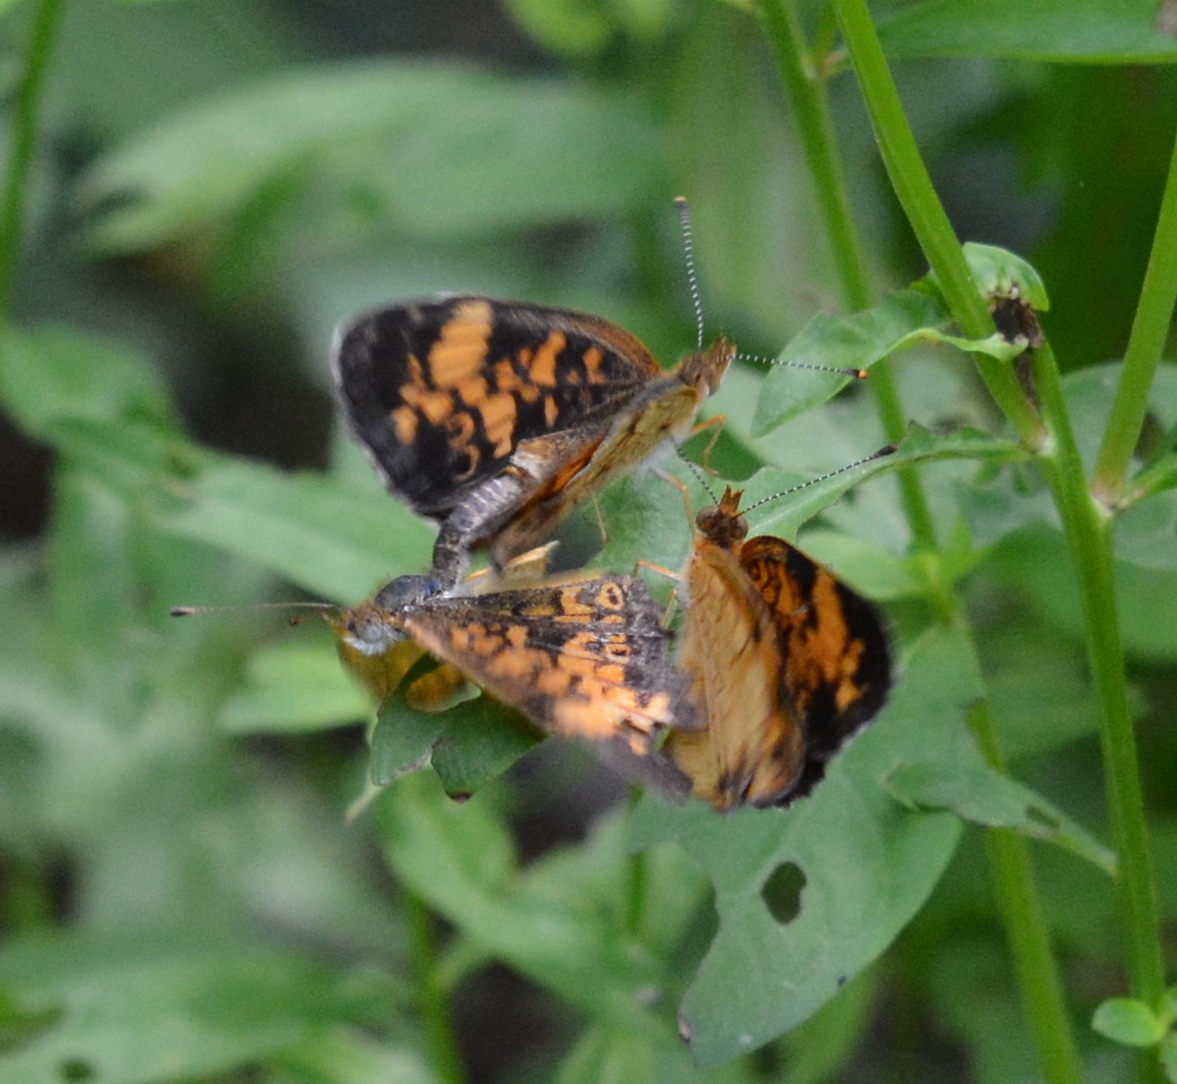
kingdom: Animalia
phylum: Arthropoda
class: Insecta
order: Lepidoptera
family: Nymphalidae
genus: Phyciodes
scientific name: Phyciodes tharos
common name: Pearl crescent
